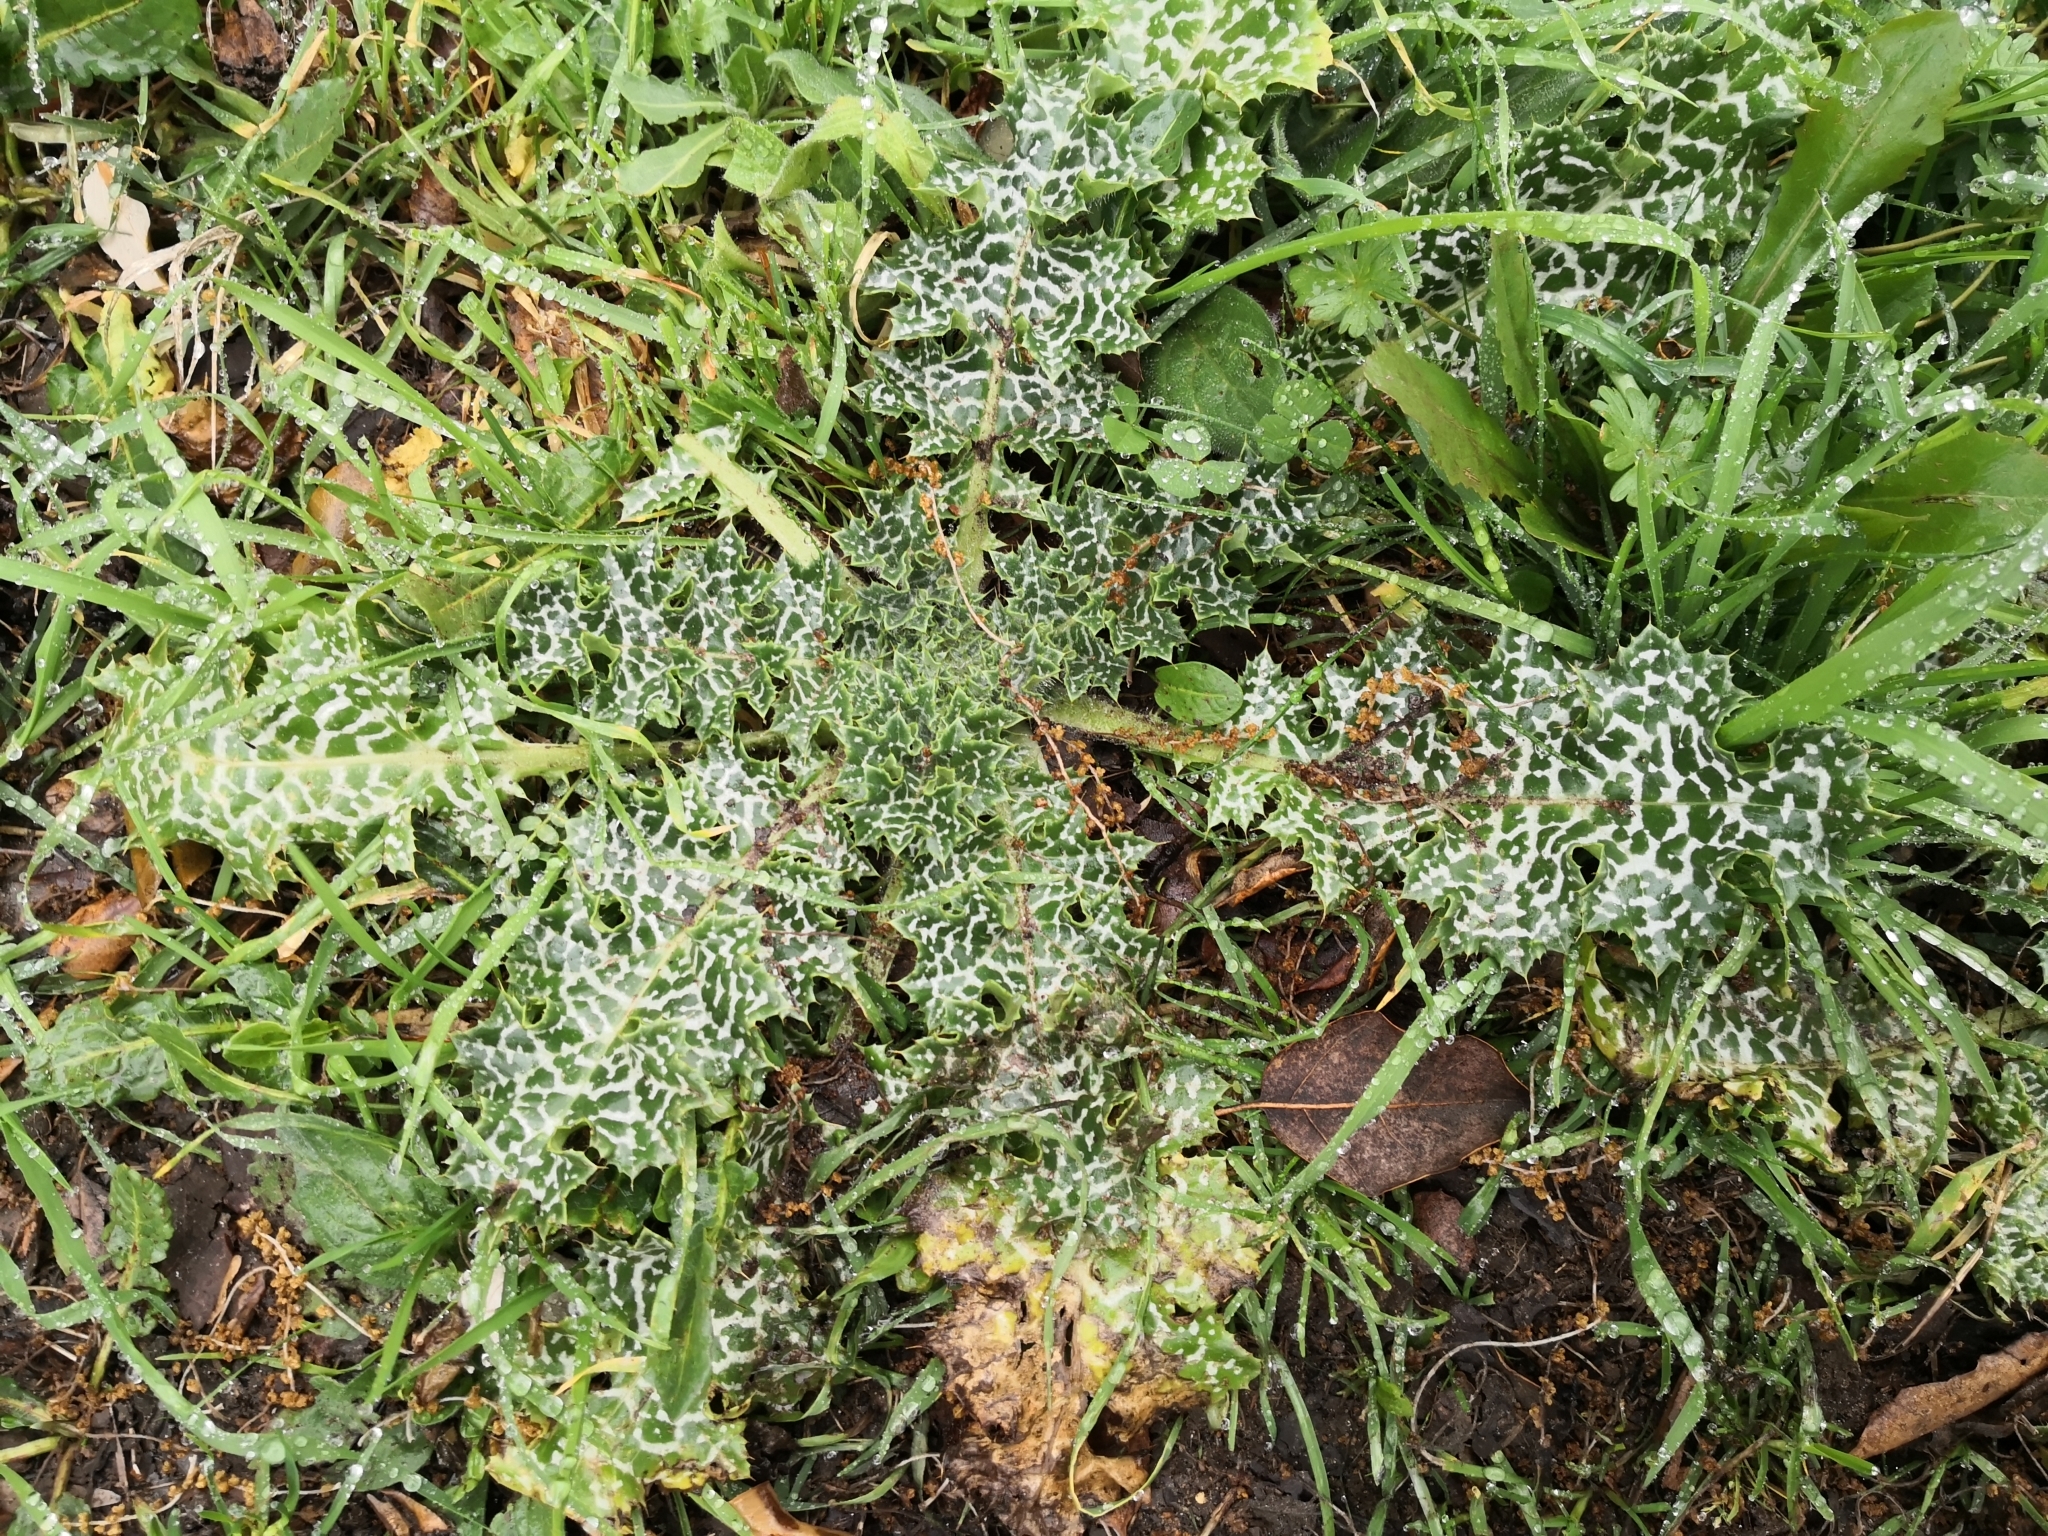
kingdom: Plantae
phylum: Tracheophyta
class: Magnoliopsida
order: Asterales
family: Asteraceae
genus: Silybum
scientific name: Silybum marianum
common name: Milk thistle
